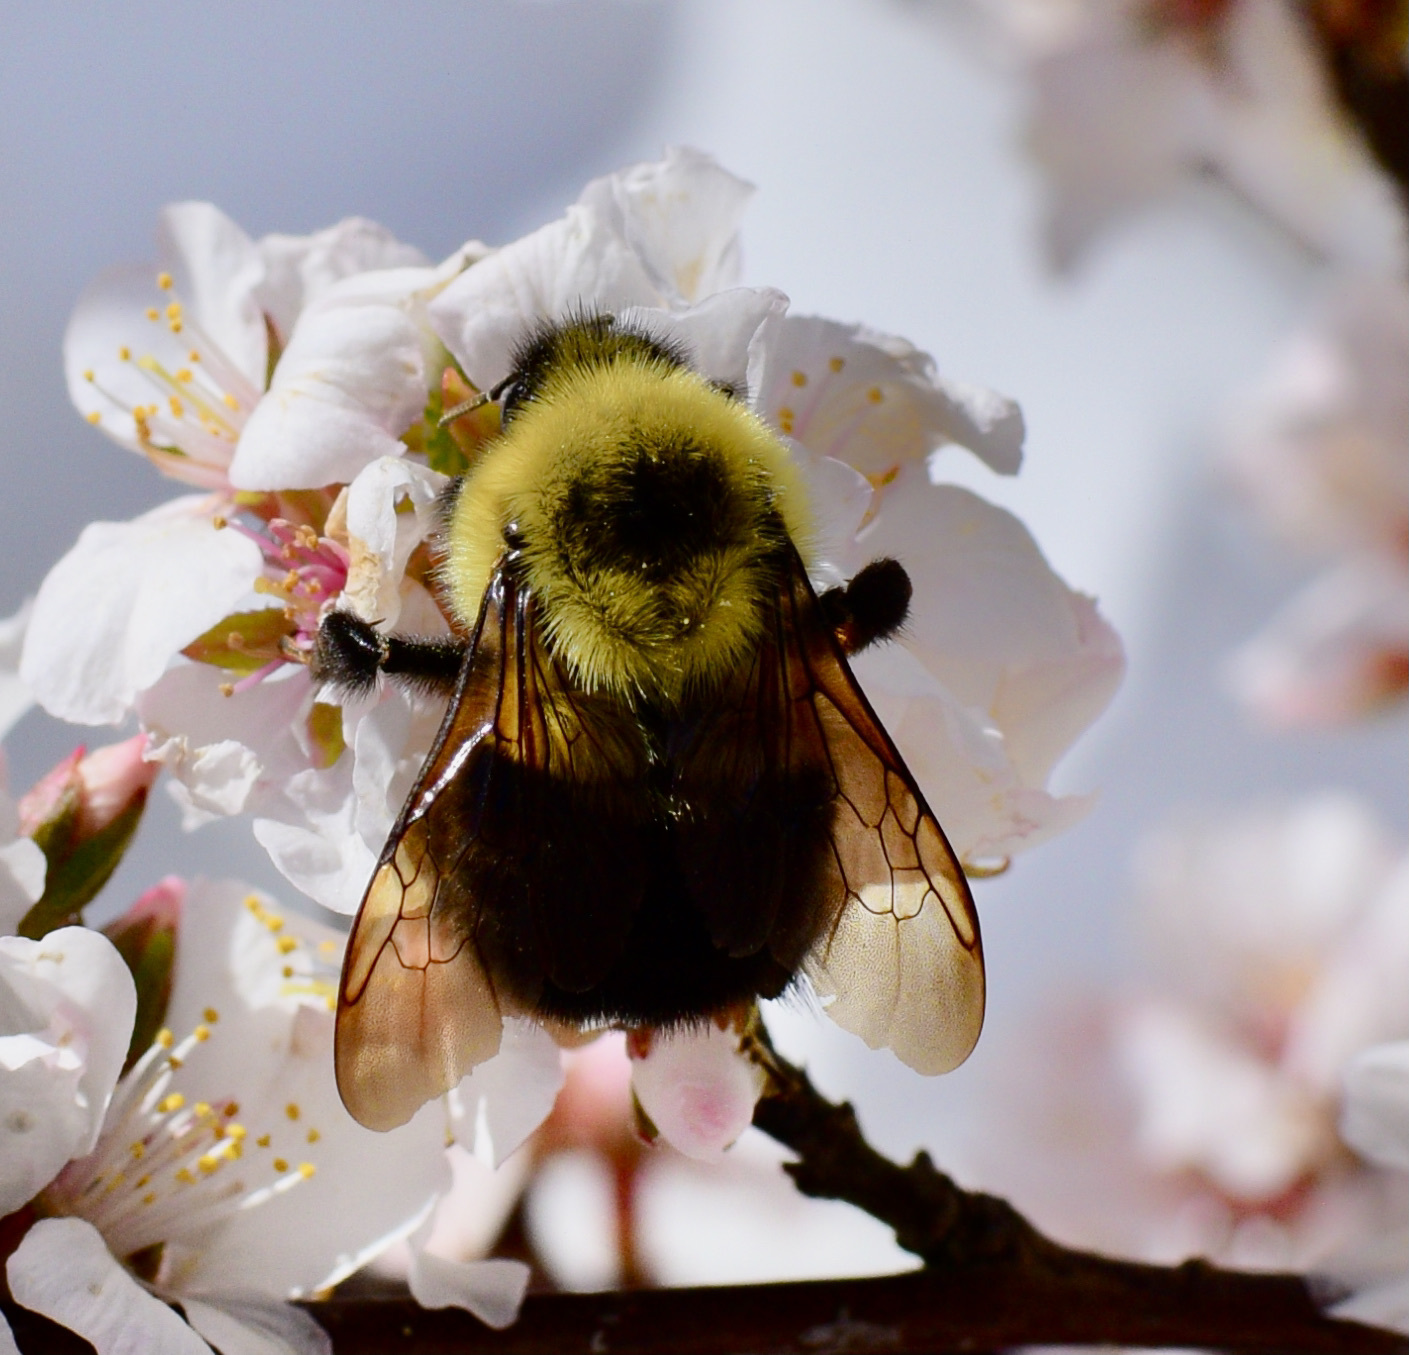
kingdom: Animalia
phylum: Arthropoda
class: Insecta
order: Hymenoptera
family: Apidae
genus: Bombus
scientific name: Bombus bimaculatus
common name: Two-spotted bumble bee
